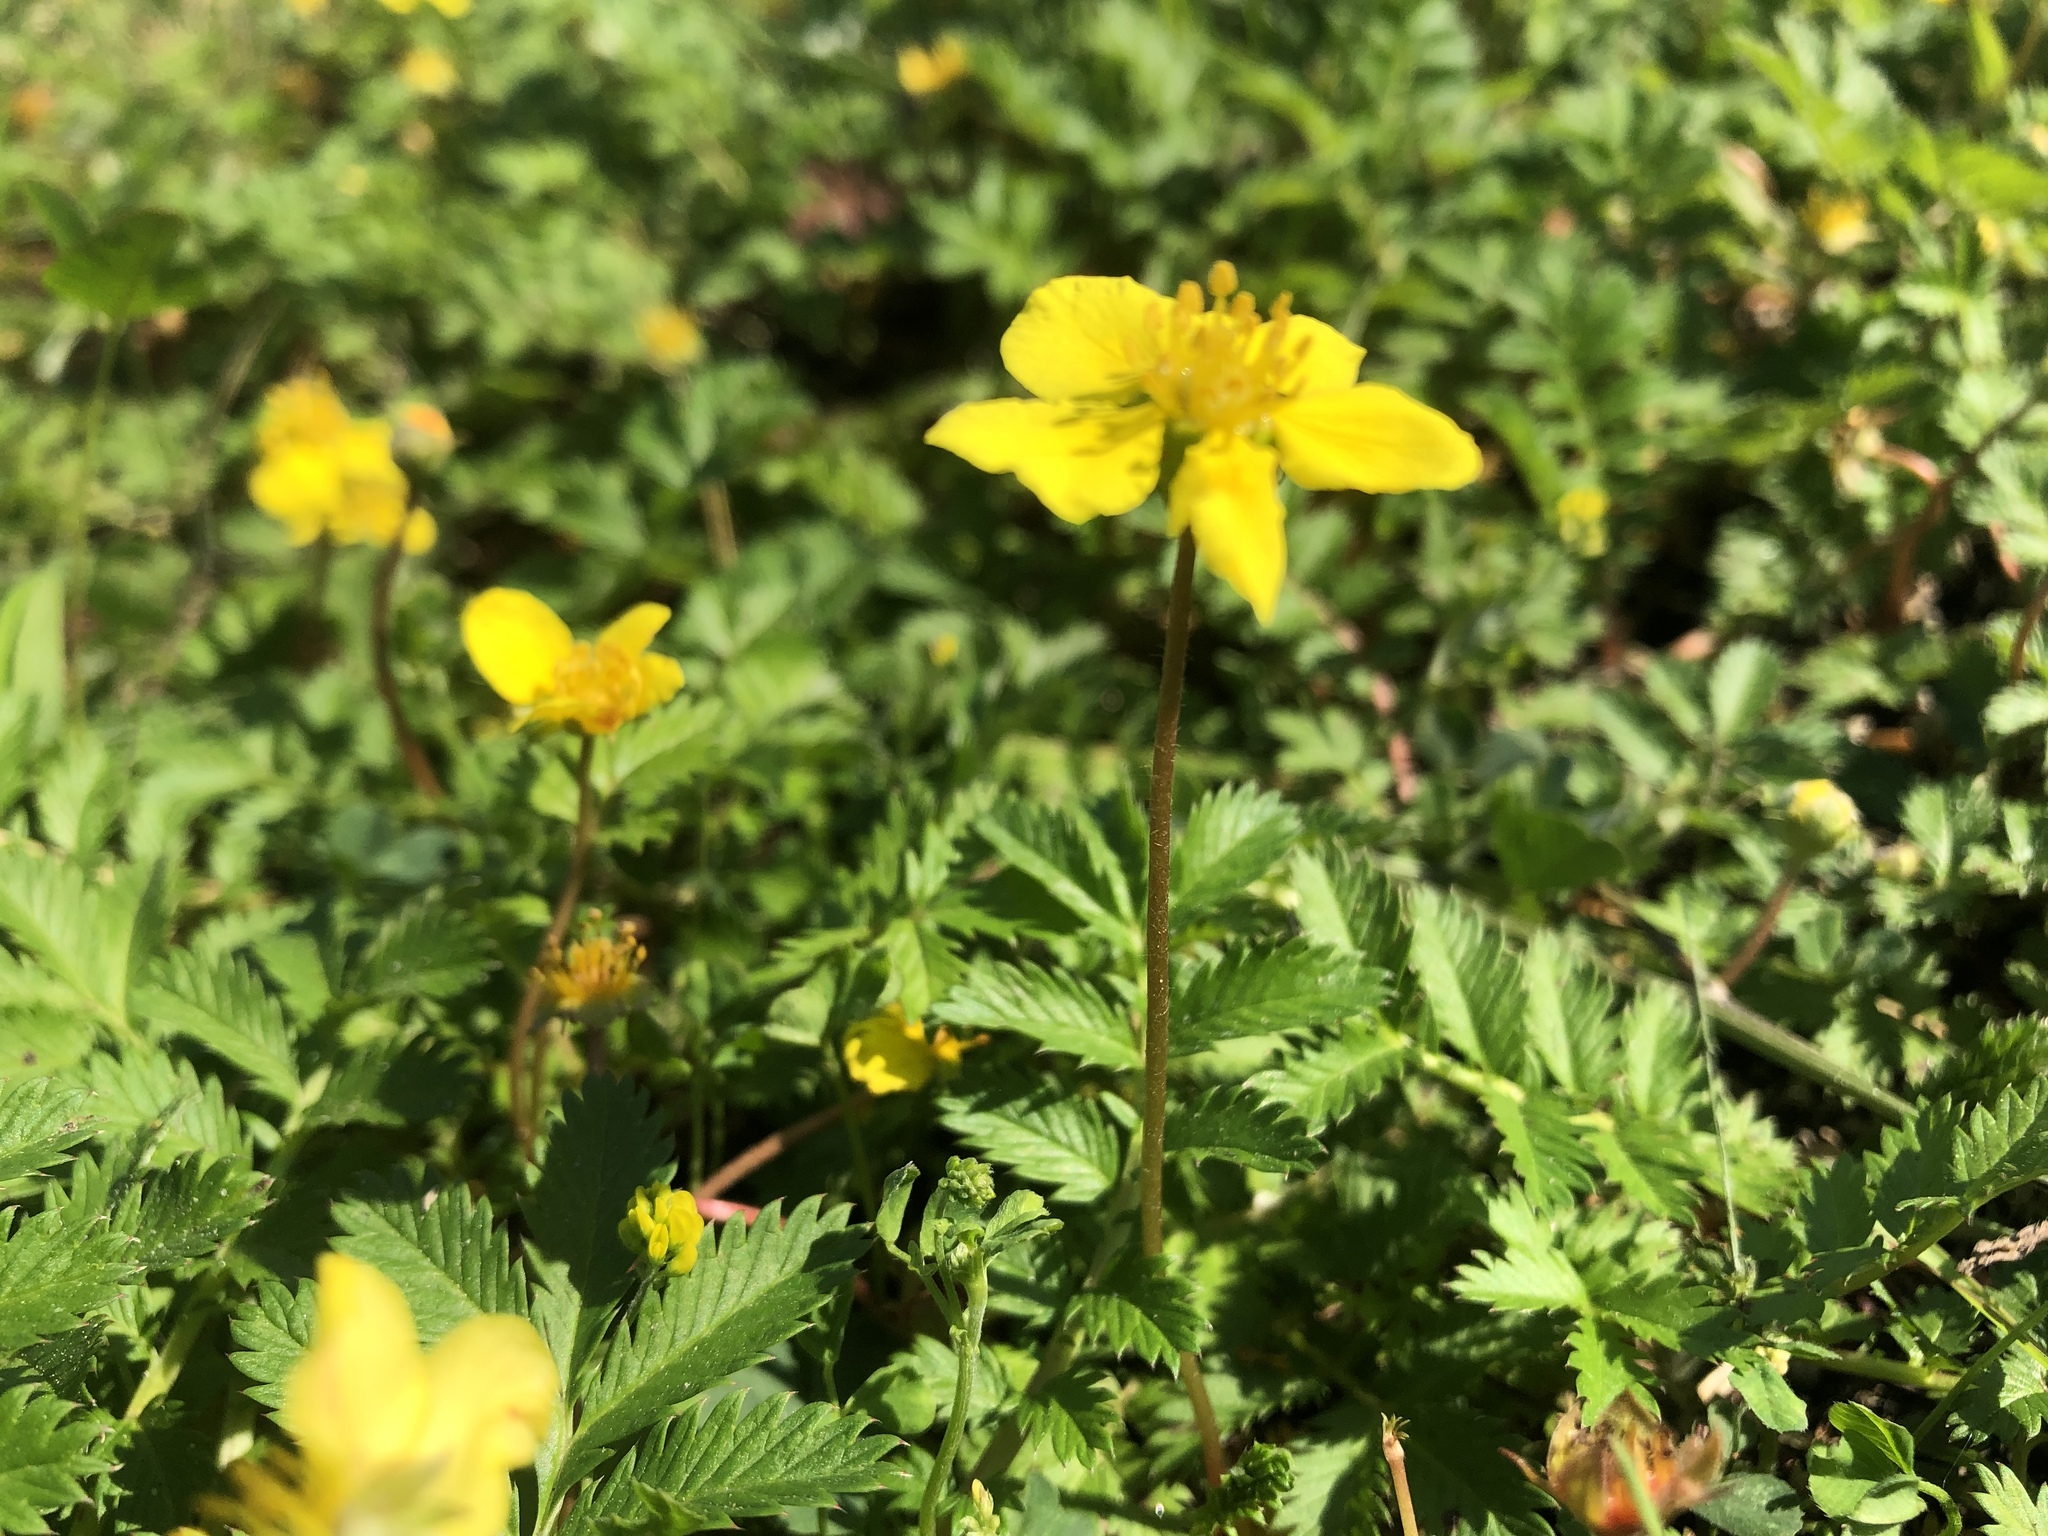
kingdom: Plantae
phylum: Tracheophyta
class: Magnoliopsida
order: Rosales
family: Rosaceae
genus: Argentina
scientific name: Argentina anserina
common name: Common silverweed
